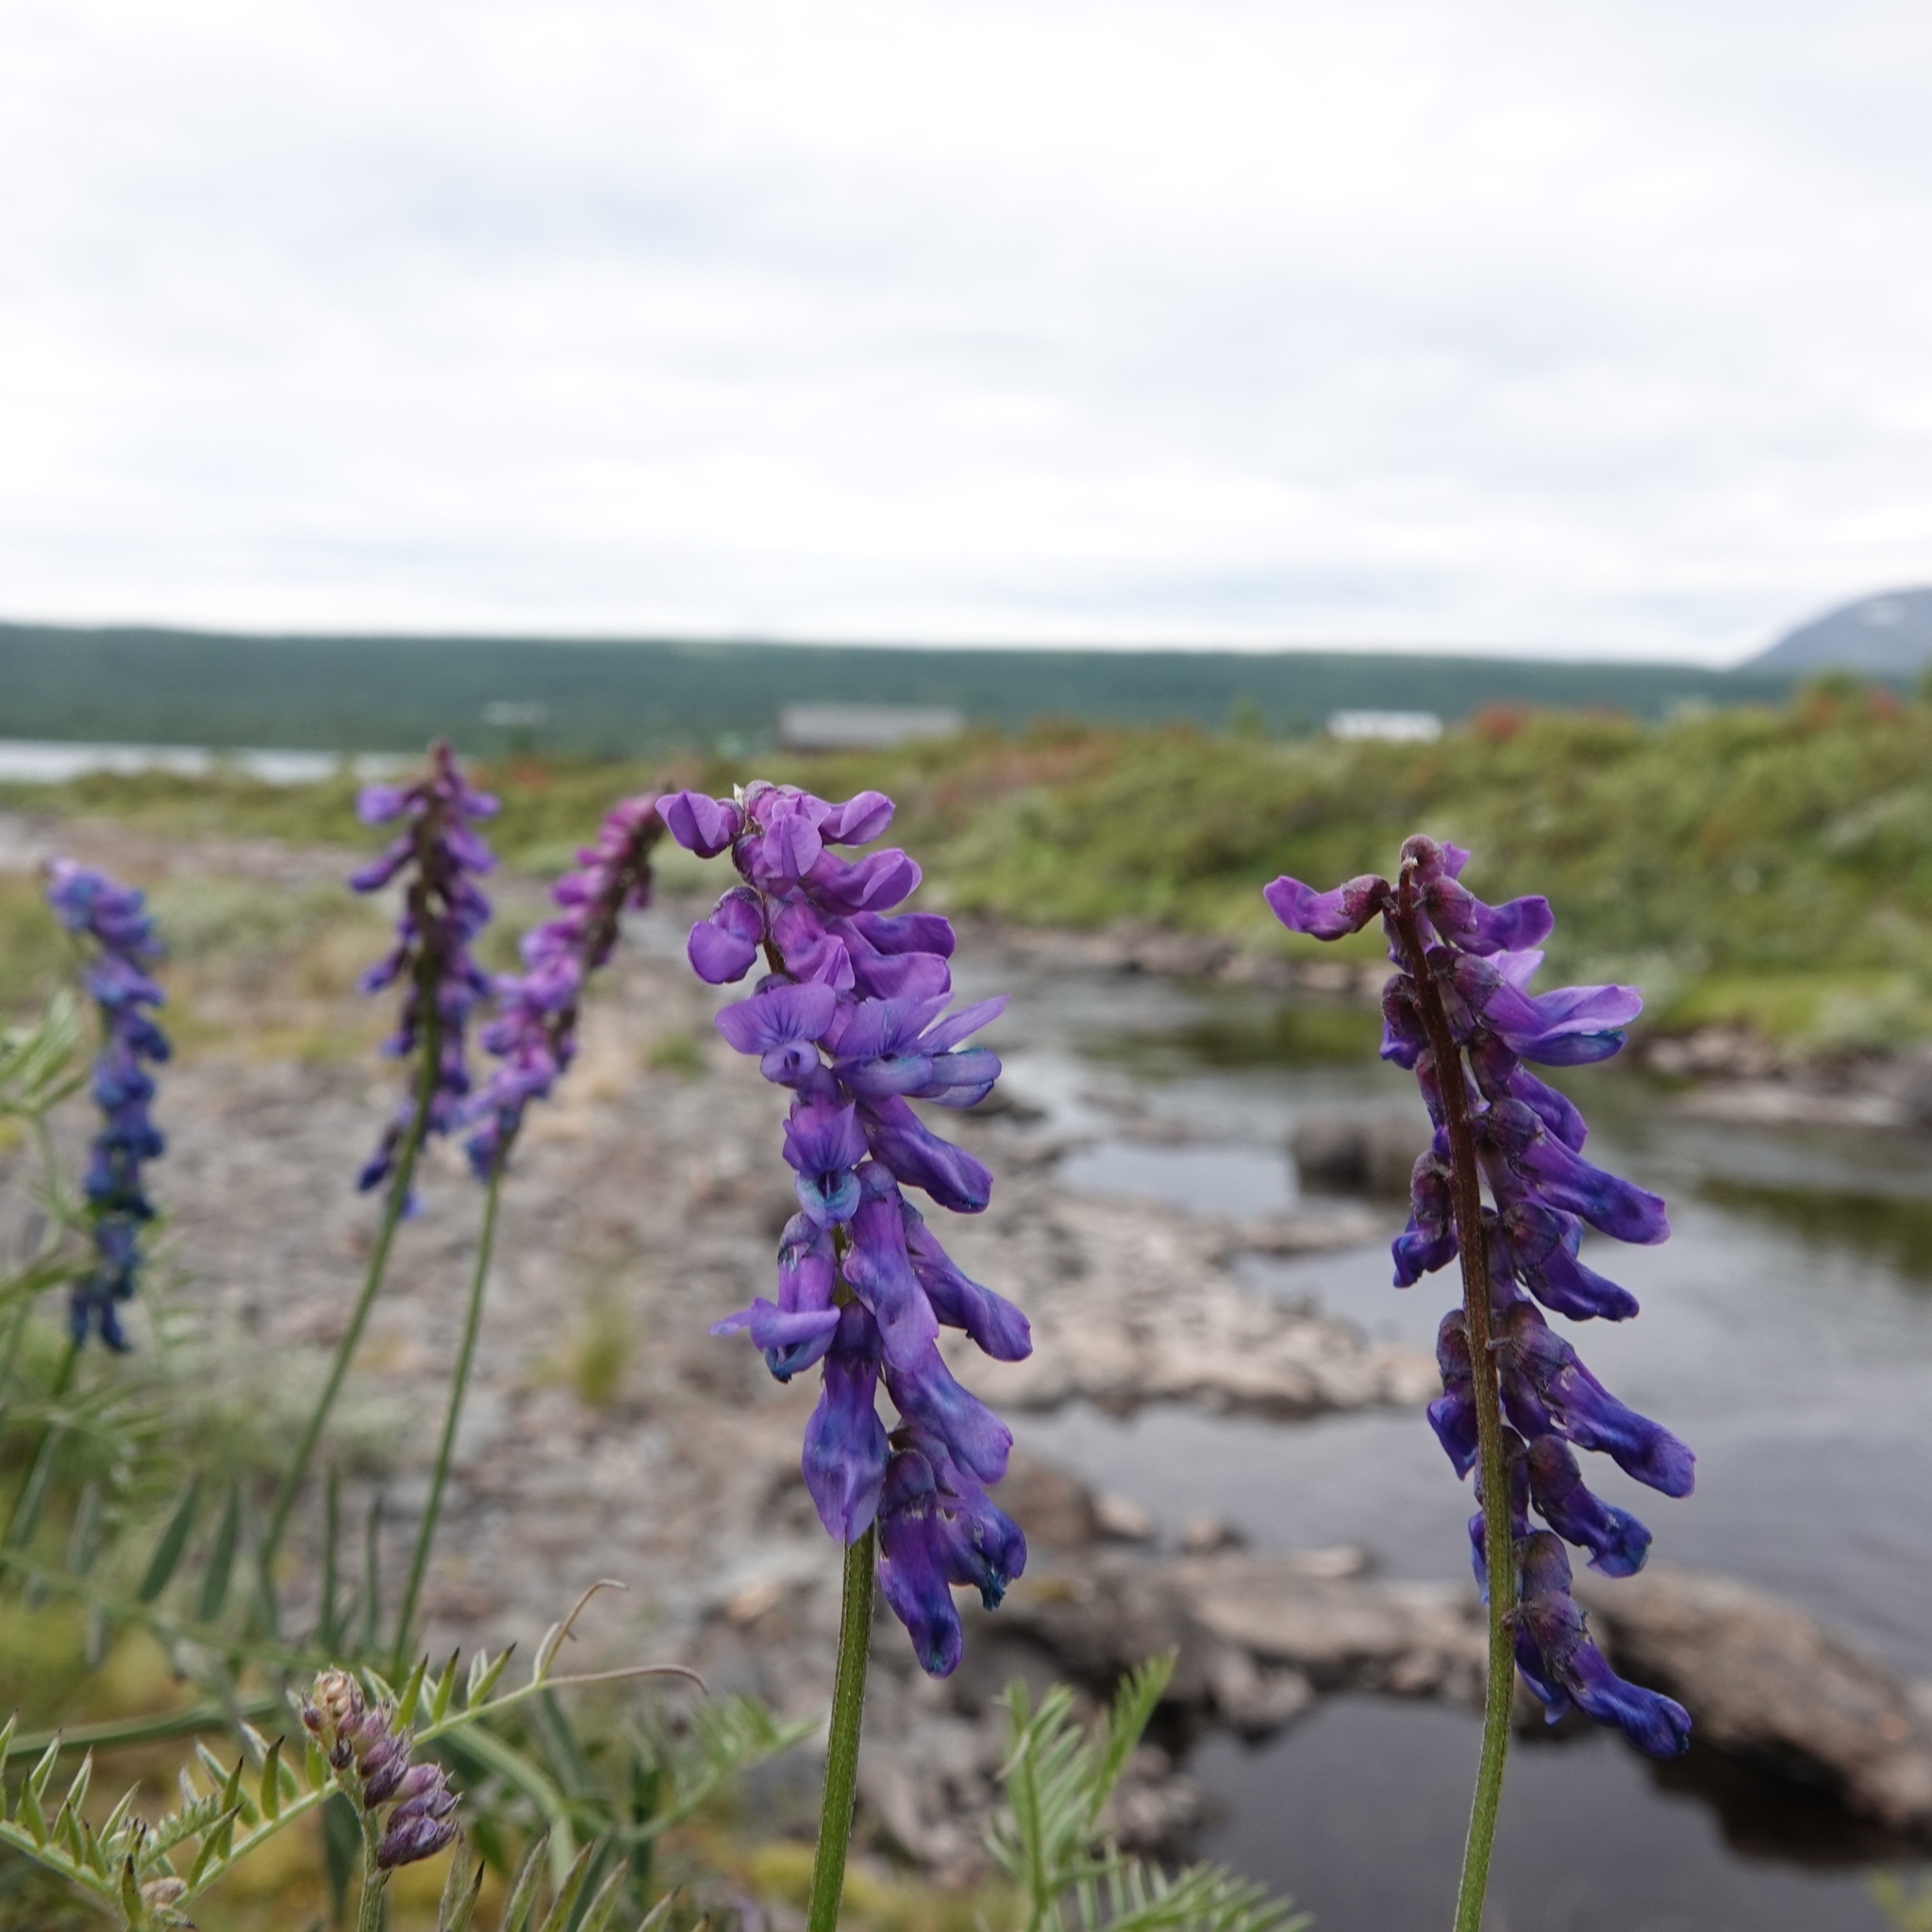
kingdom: Plantae
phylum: Tracheophyta
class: Magnoliopsida
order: Fabales
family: Fabaceae
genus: Vicia
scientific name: Vicia cracca
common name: Bird vetch
